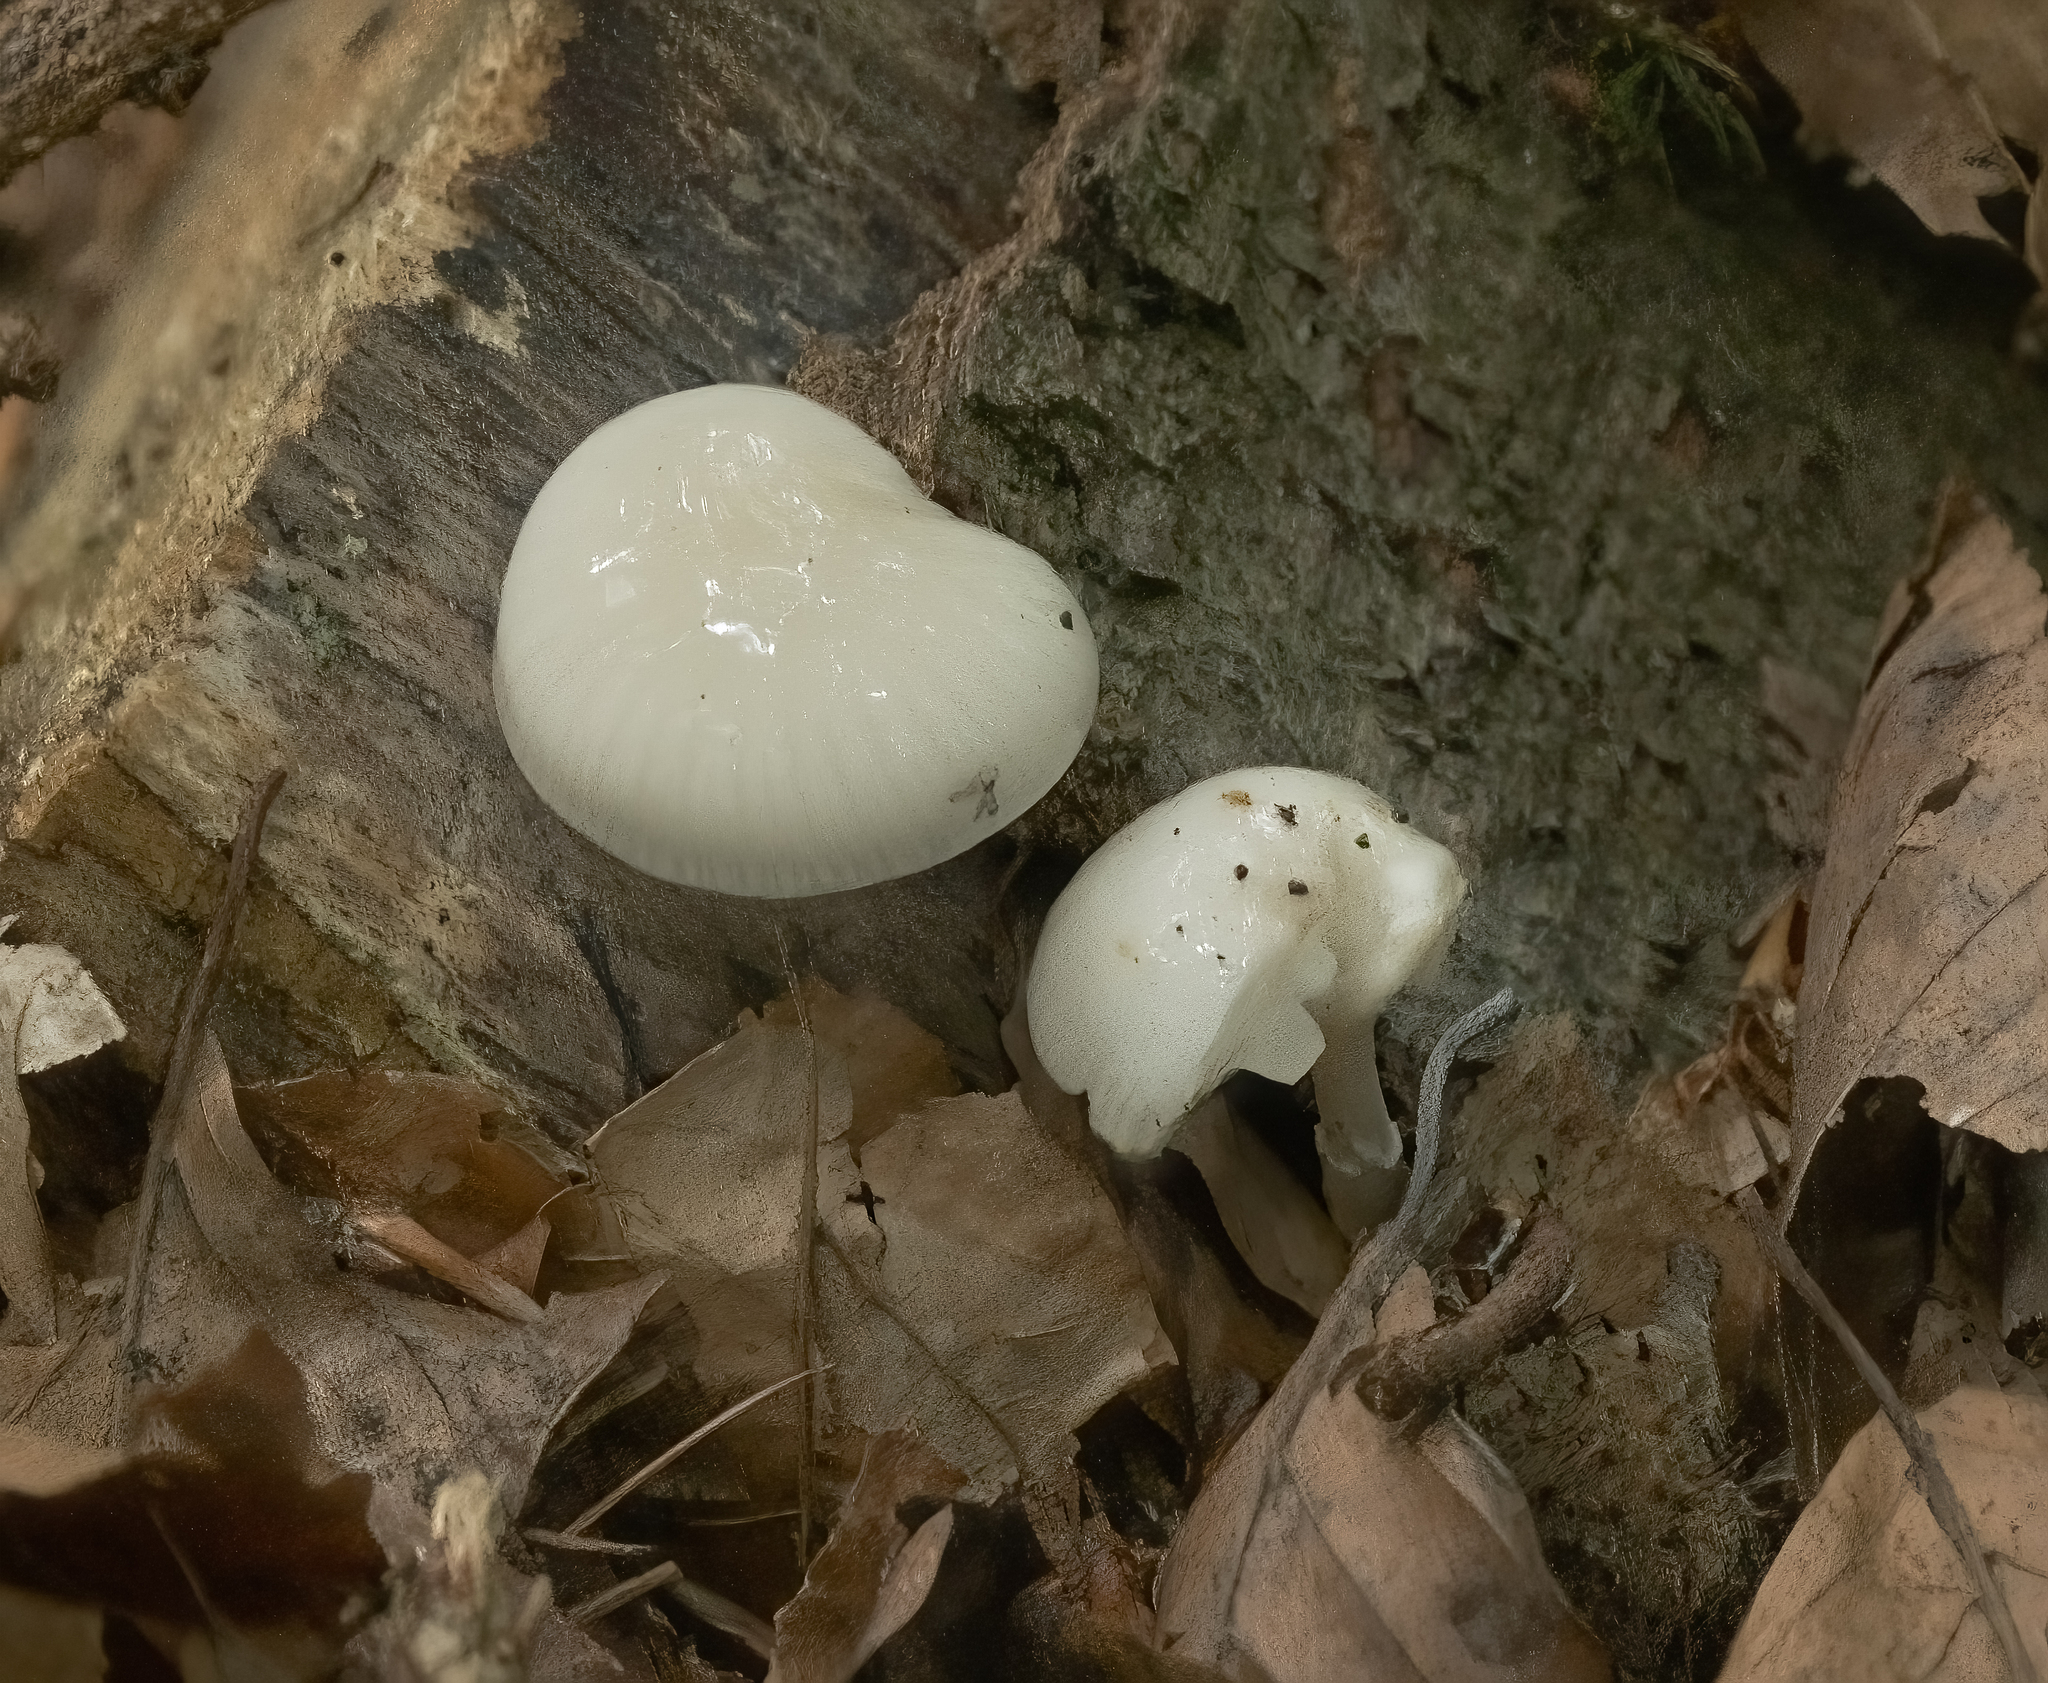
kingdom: Fungi
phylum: Basidiomycota
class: Agaricomycetes
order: Agaricales
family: Physalacriaceae
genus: Mucidula
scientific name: Mucidula mucida
